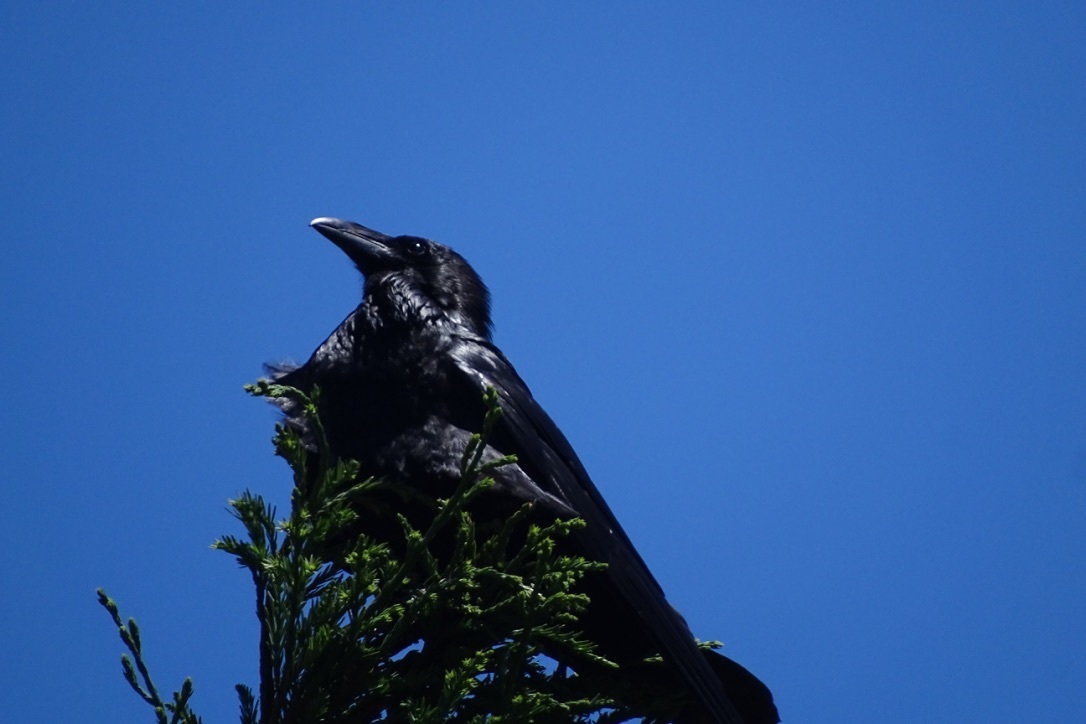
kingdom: Animalia
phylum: Chordata
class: Aves
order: Passeriformes
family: Corvidae
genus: Corvus
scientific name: Corvus corax
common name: Common raven
